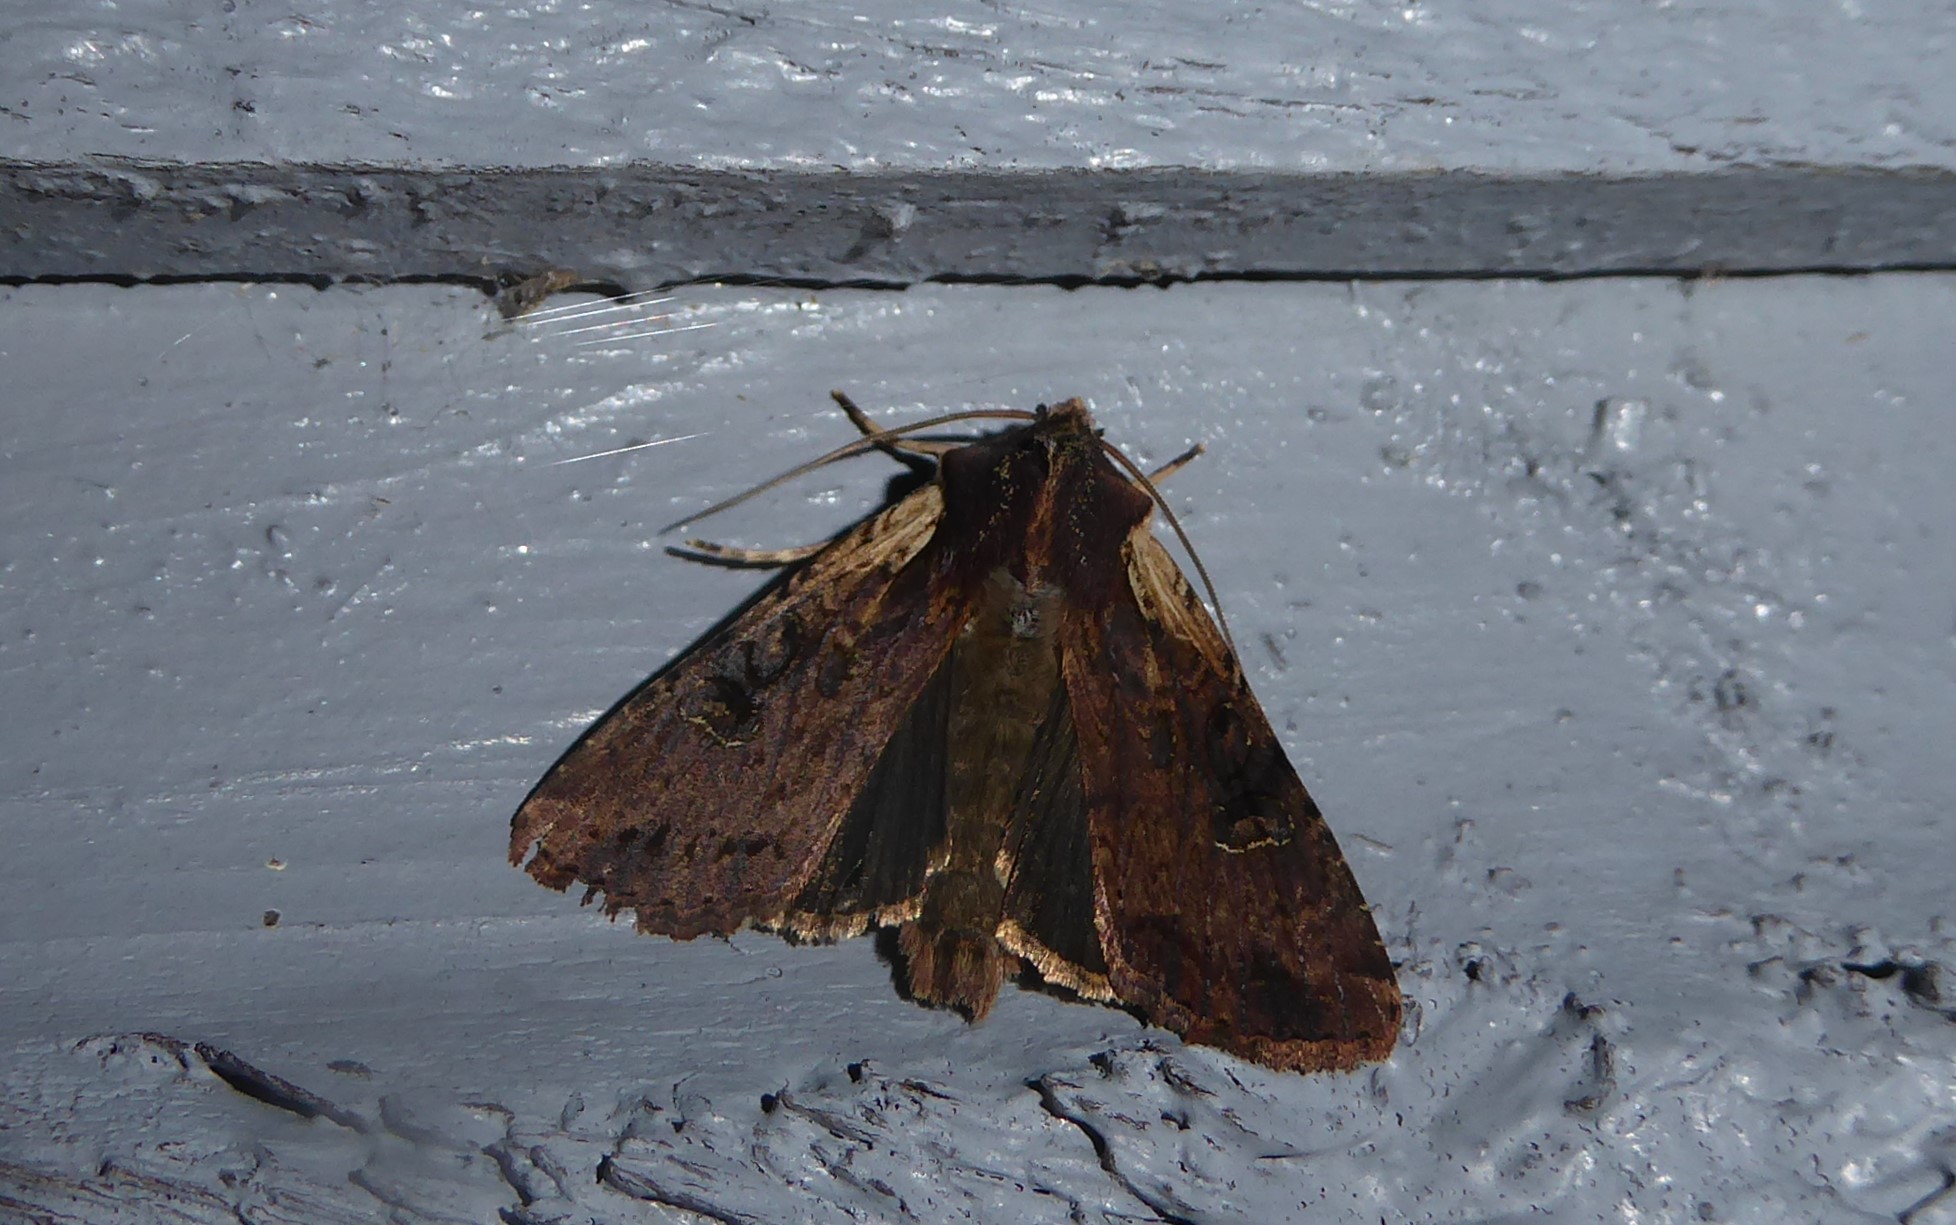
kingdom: Animalia
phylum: Arthropoda
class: Insecta
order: Lepidoptera
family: Noctuidae
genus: Ichneutica
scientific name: Ichneutica omoplaca
